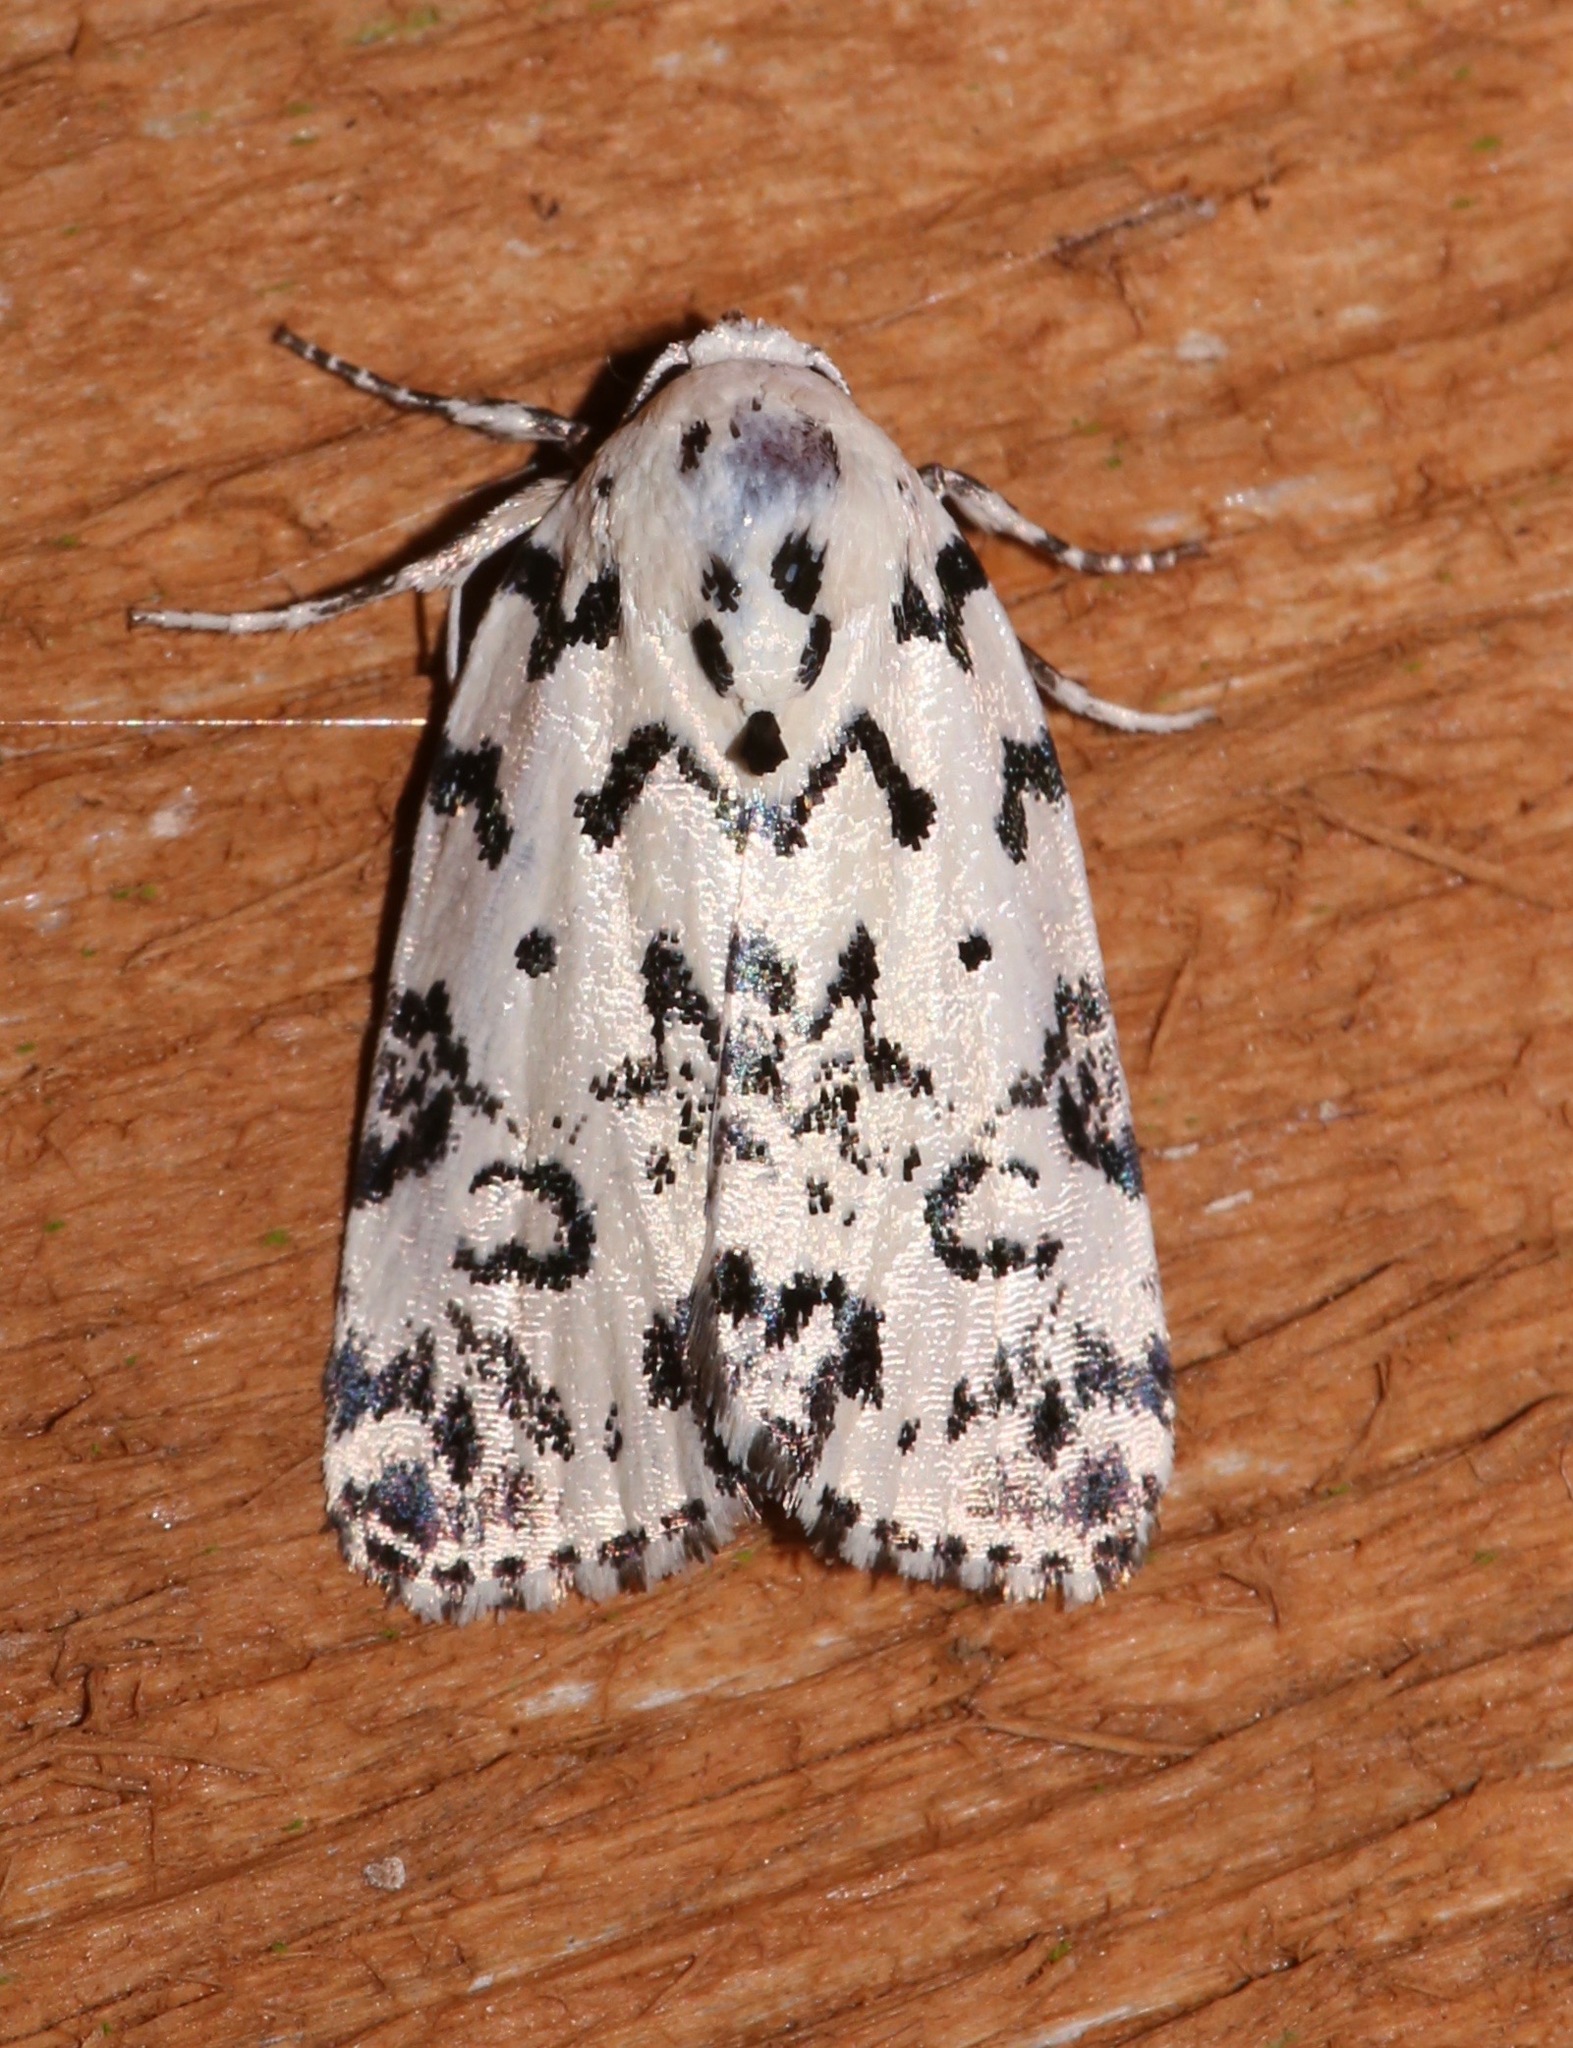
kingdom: Animalia
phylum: Arthropoda
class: Insecta
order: Lepidoptera
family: Noctuidae
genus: Polygrammate
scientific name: Polygrammate hebraeicum
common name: Hebrew moth
